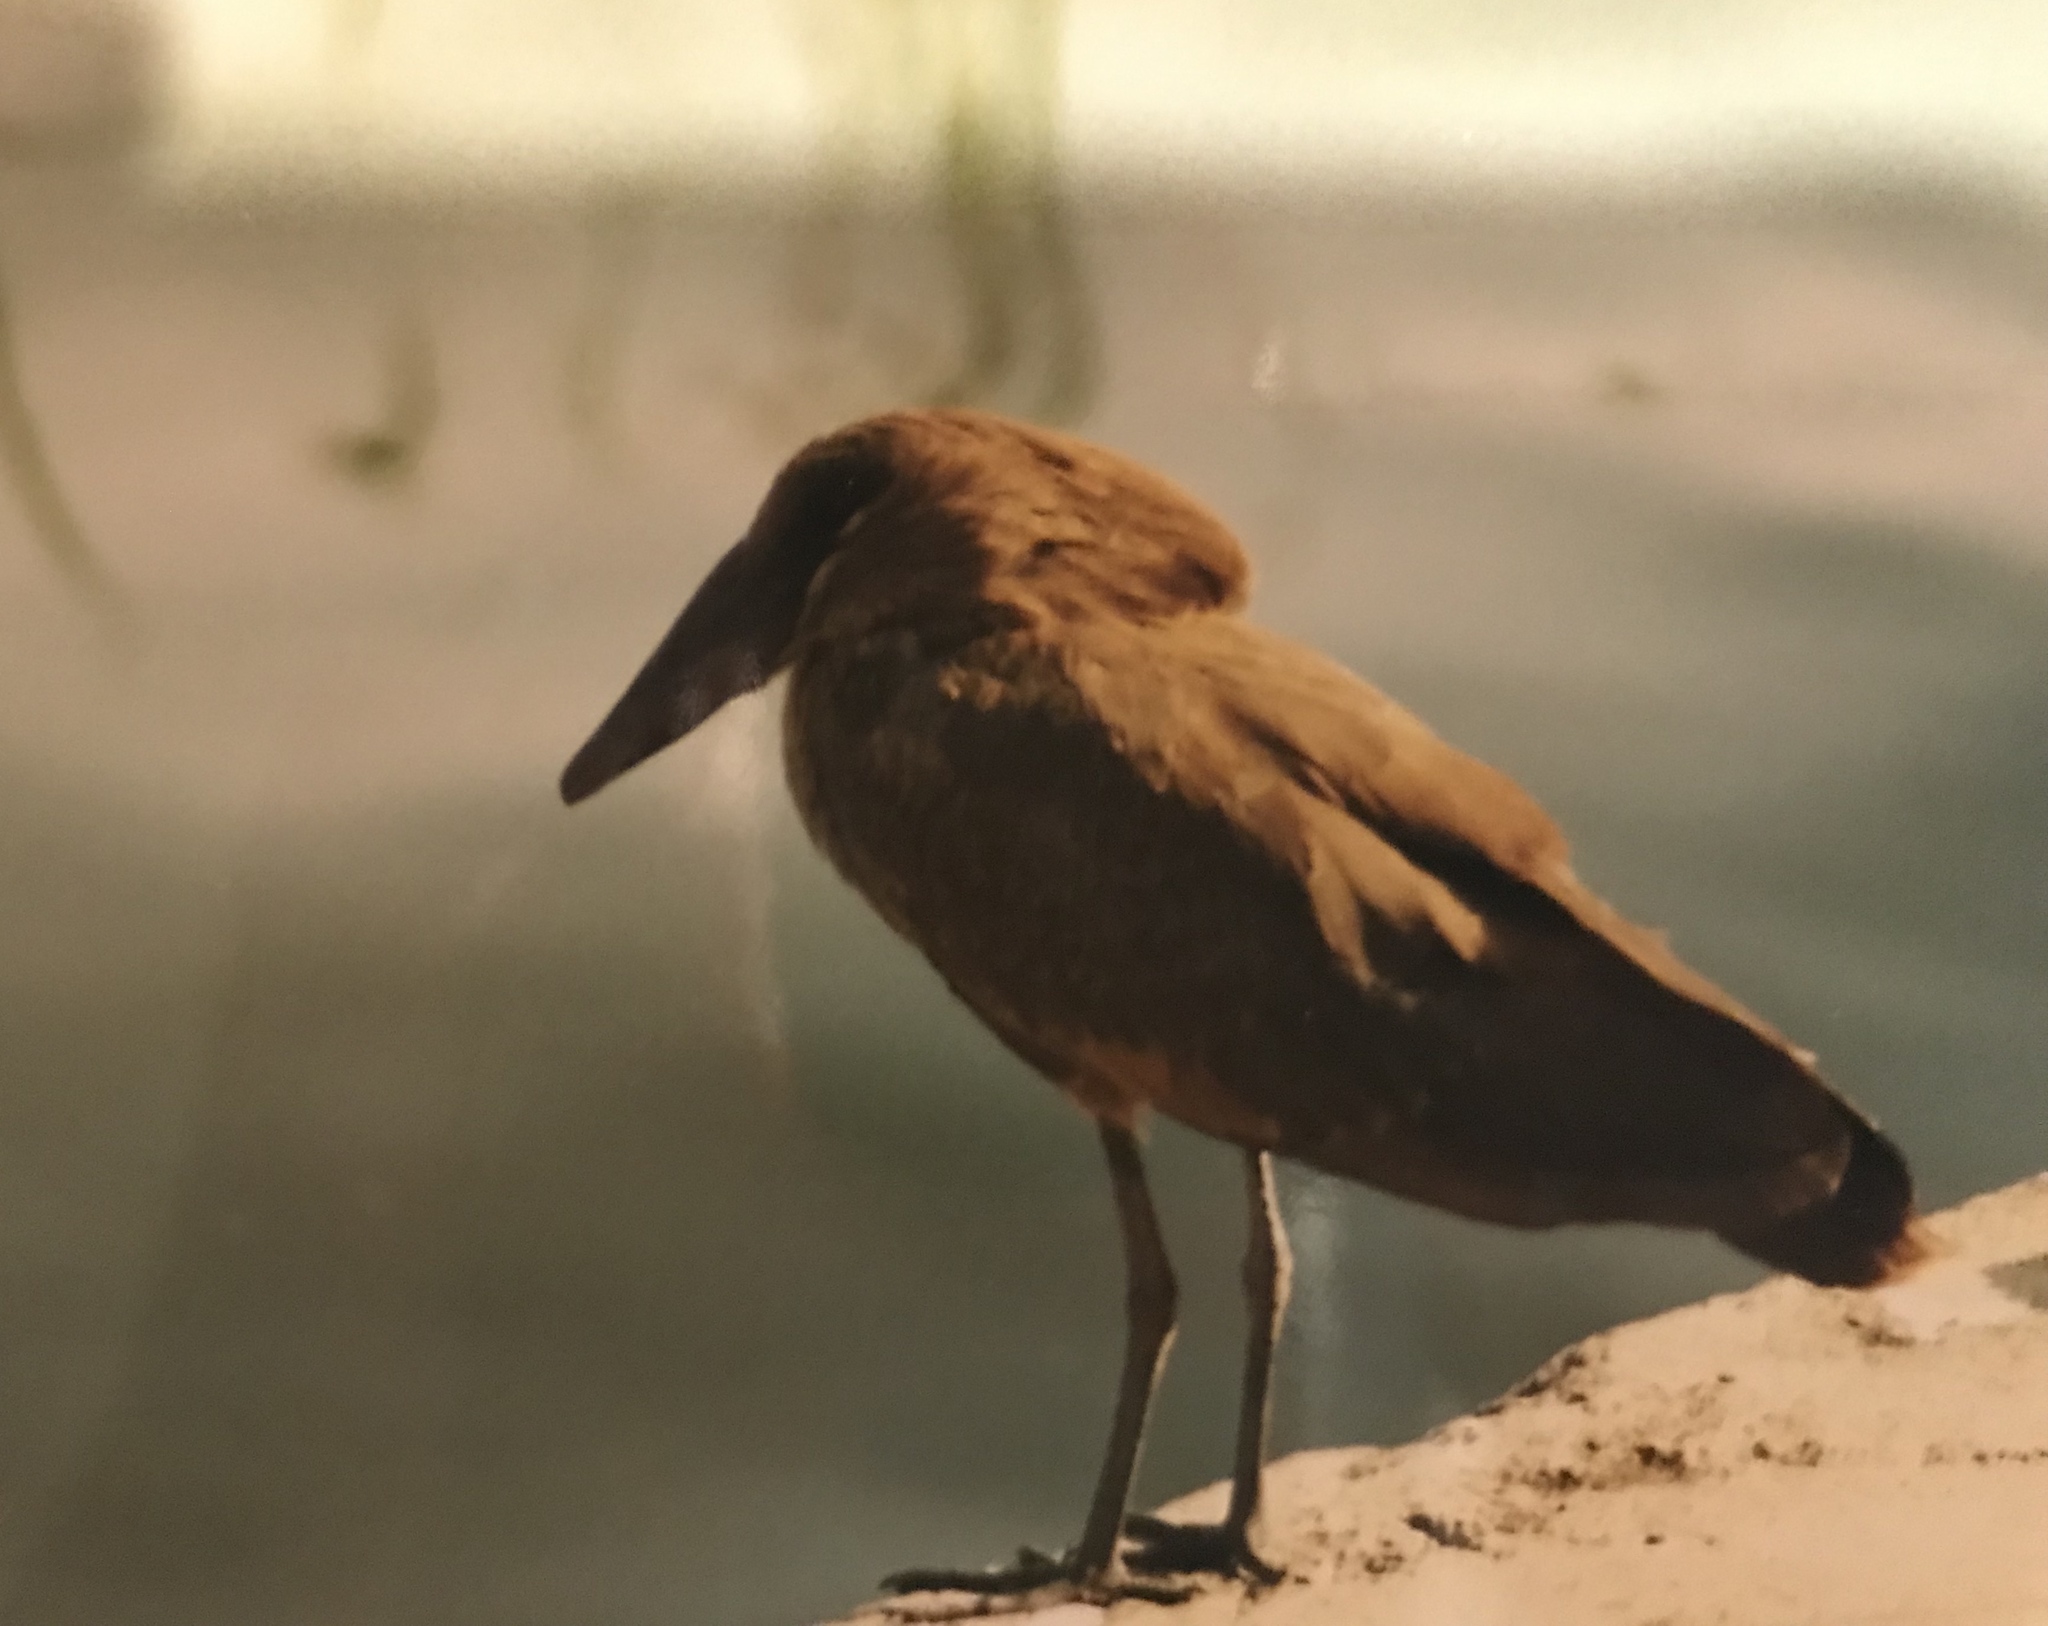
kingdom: Animalia
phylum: Chordata
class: Aves
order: Pelecaniformes
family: Scopidae
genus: Scopus
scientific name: Scopus umbretta
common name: Hamerkop
